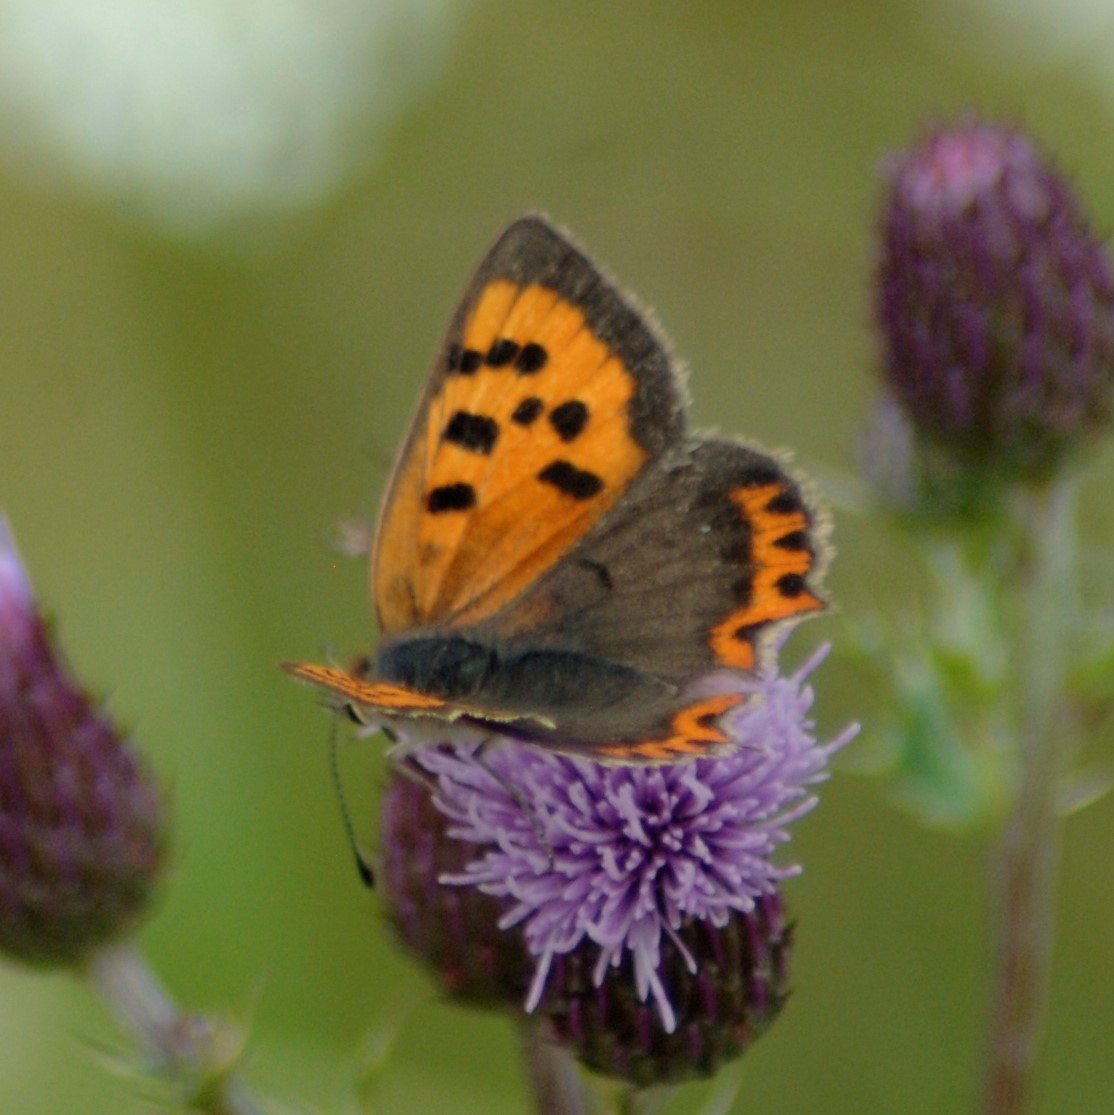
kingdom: Animalia
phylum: Arthropoda
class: Insecta
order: Lepidoptera
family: Lycaenidae
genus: Lycaena
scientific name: Lycaena phlaeas
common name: Small copper
